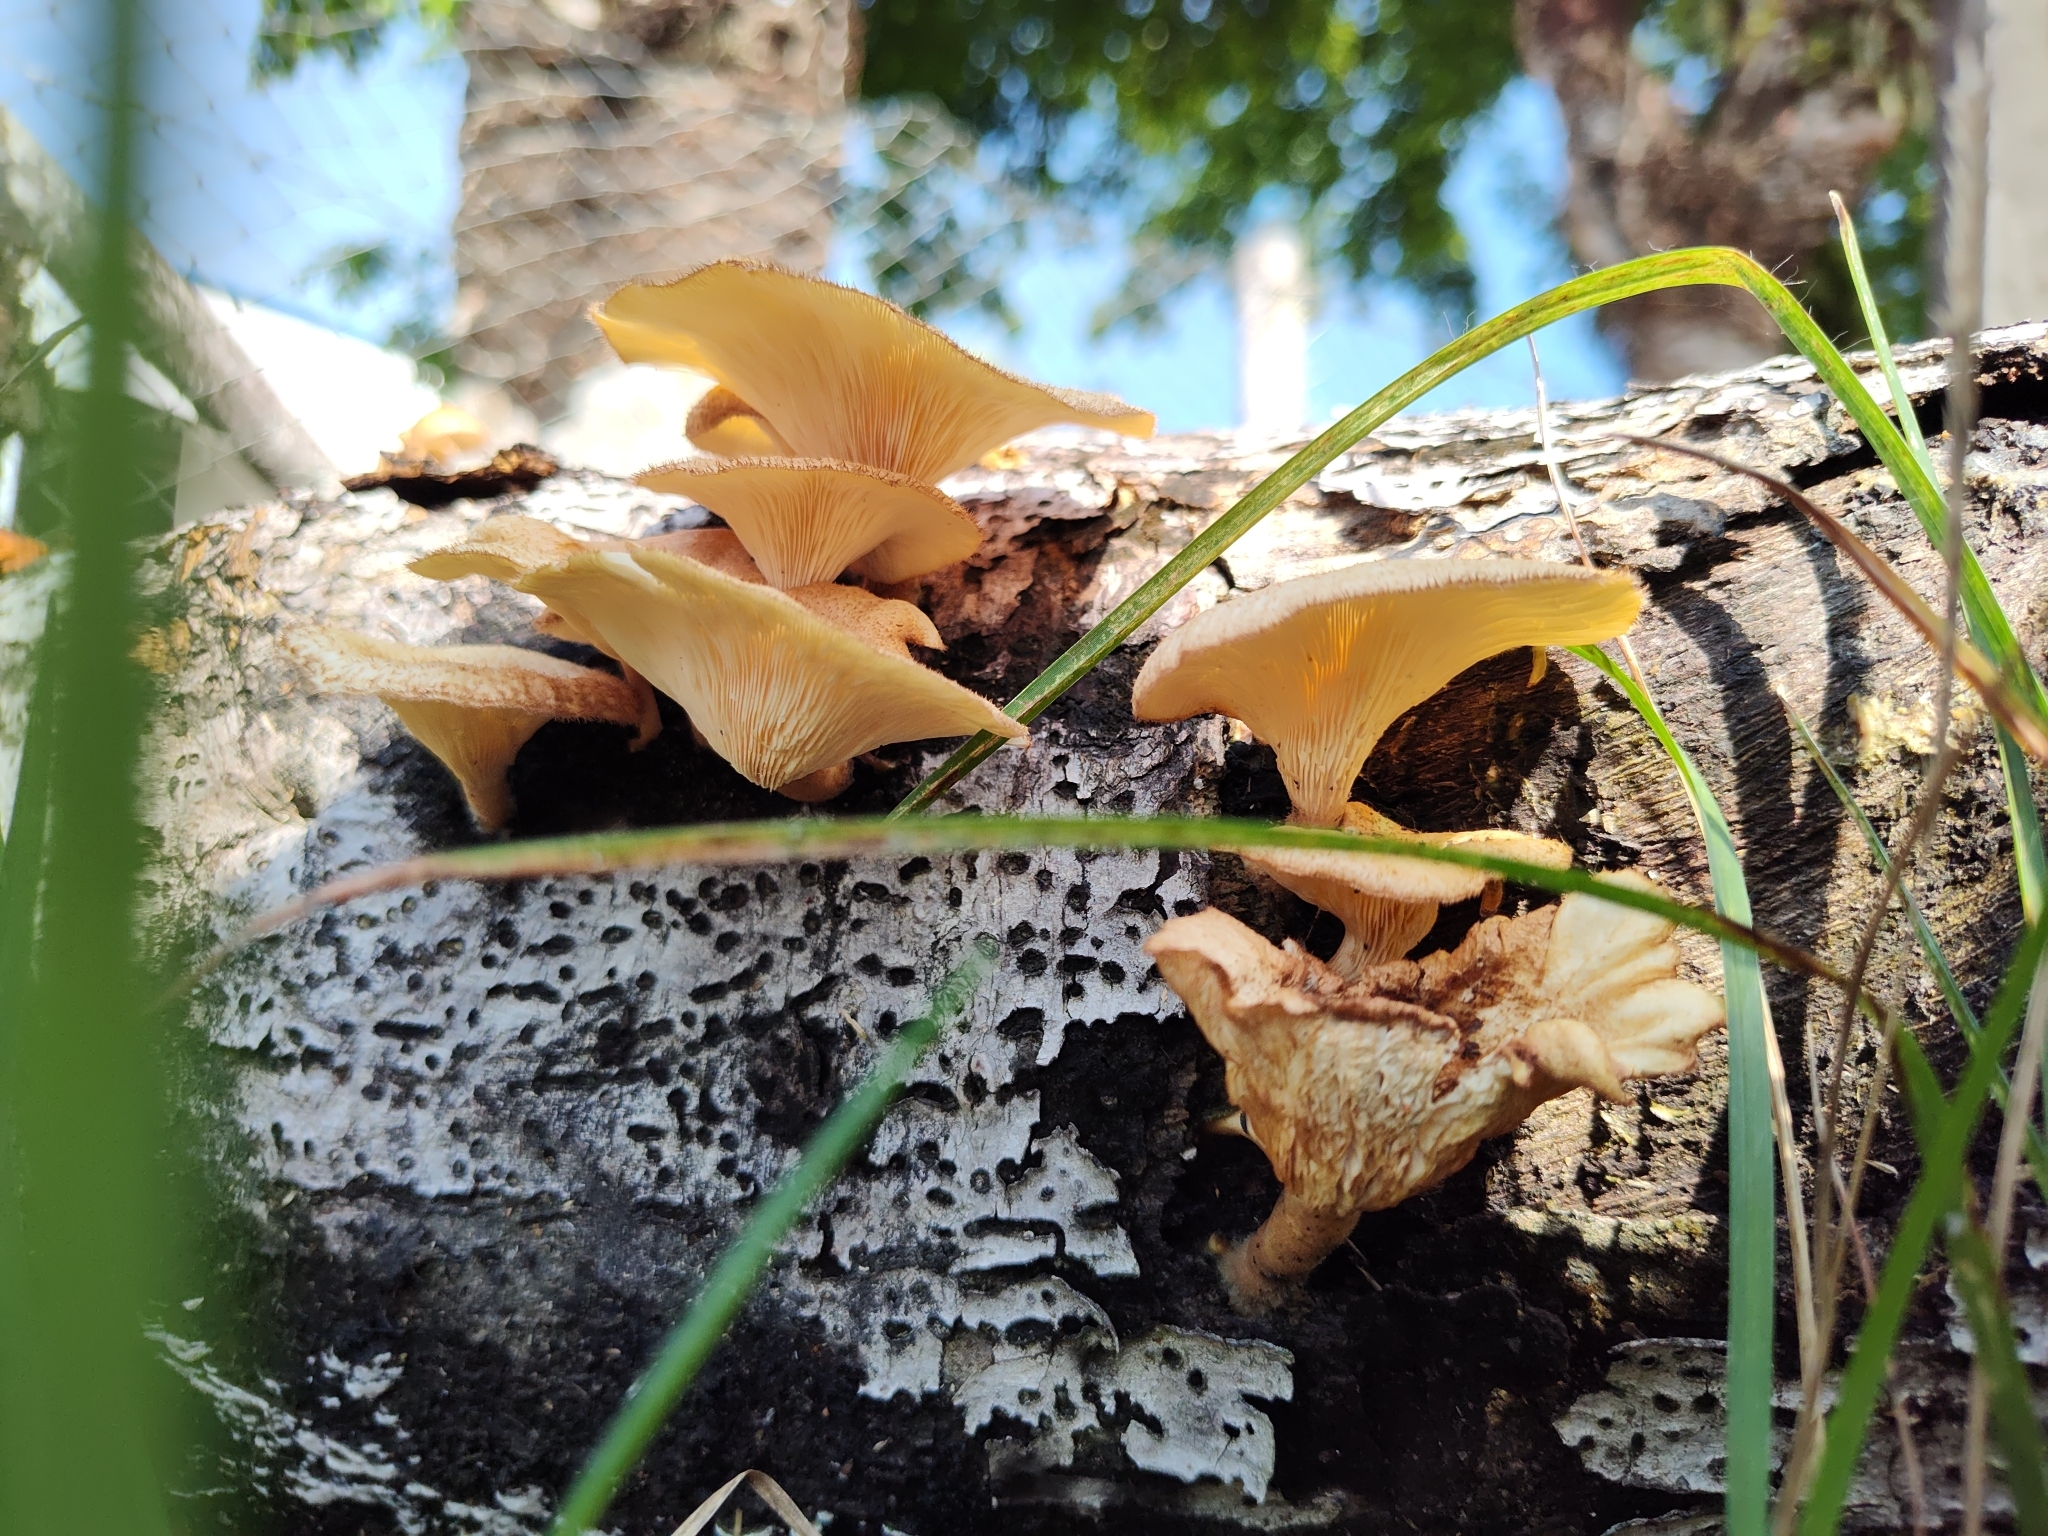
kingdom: Fungi
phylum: Basidiomycota
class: Agaricomycetes
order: Polyporales
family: Polyporaceae
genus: Lentinus
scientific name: Lentinus arcularius
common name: Spring polypore
